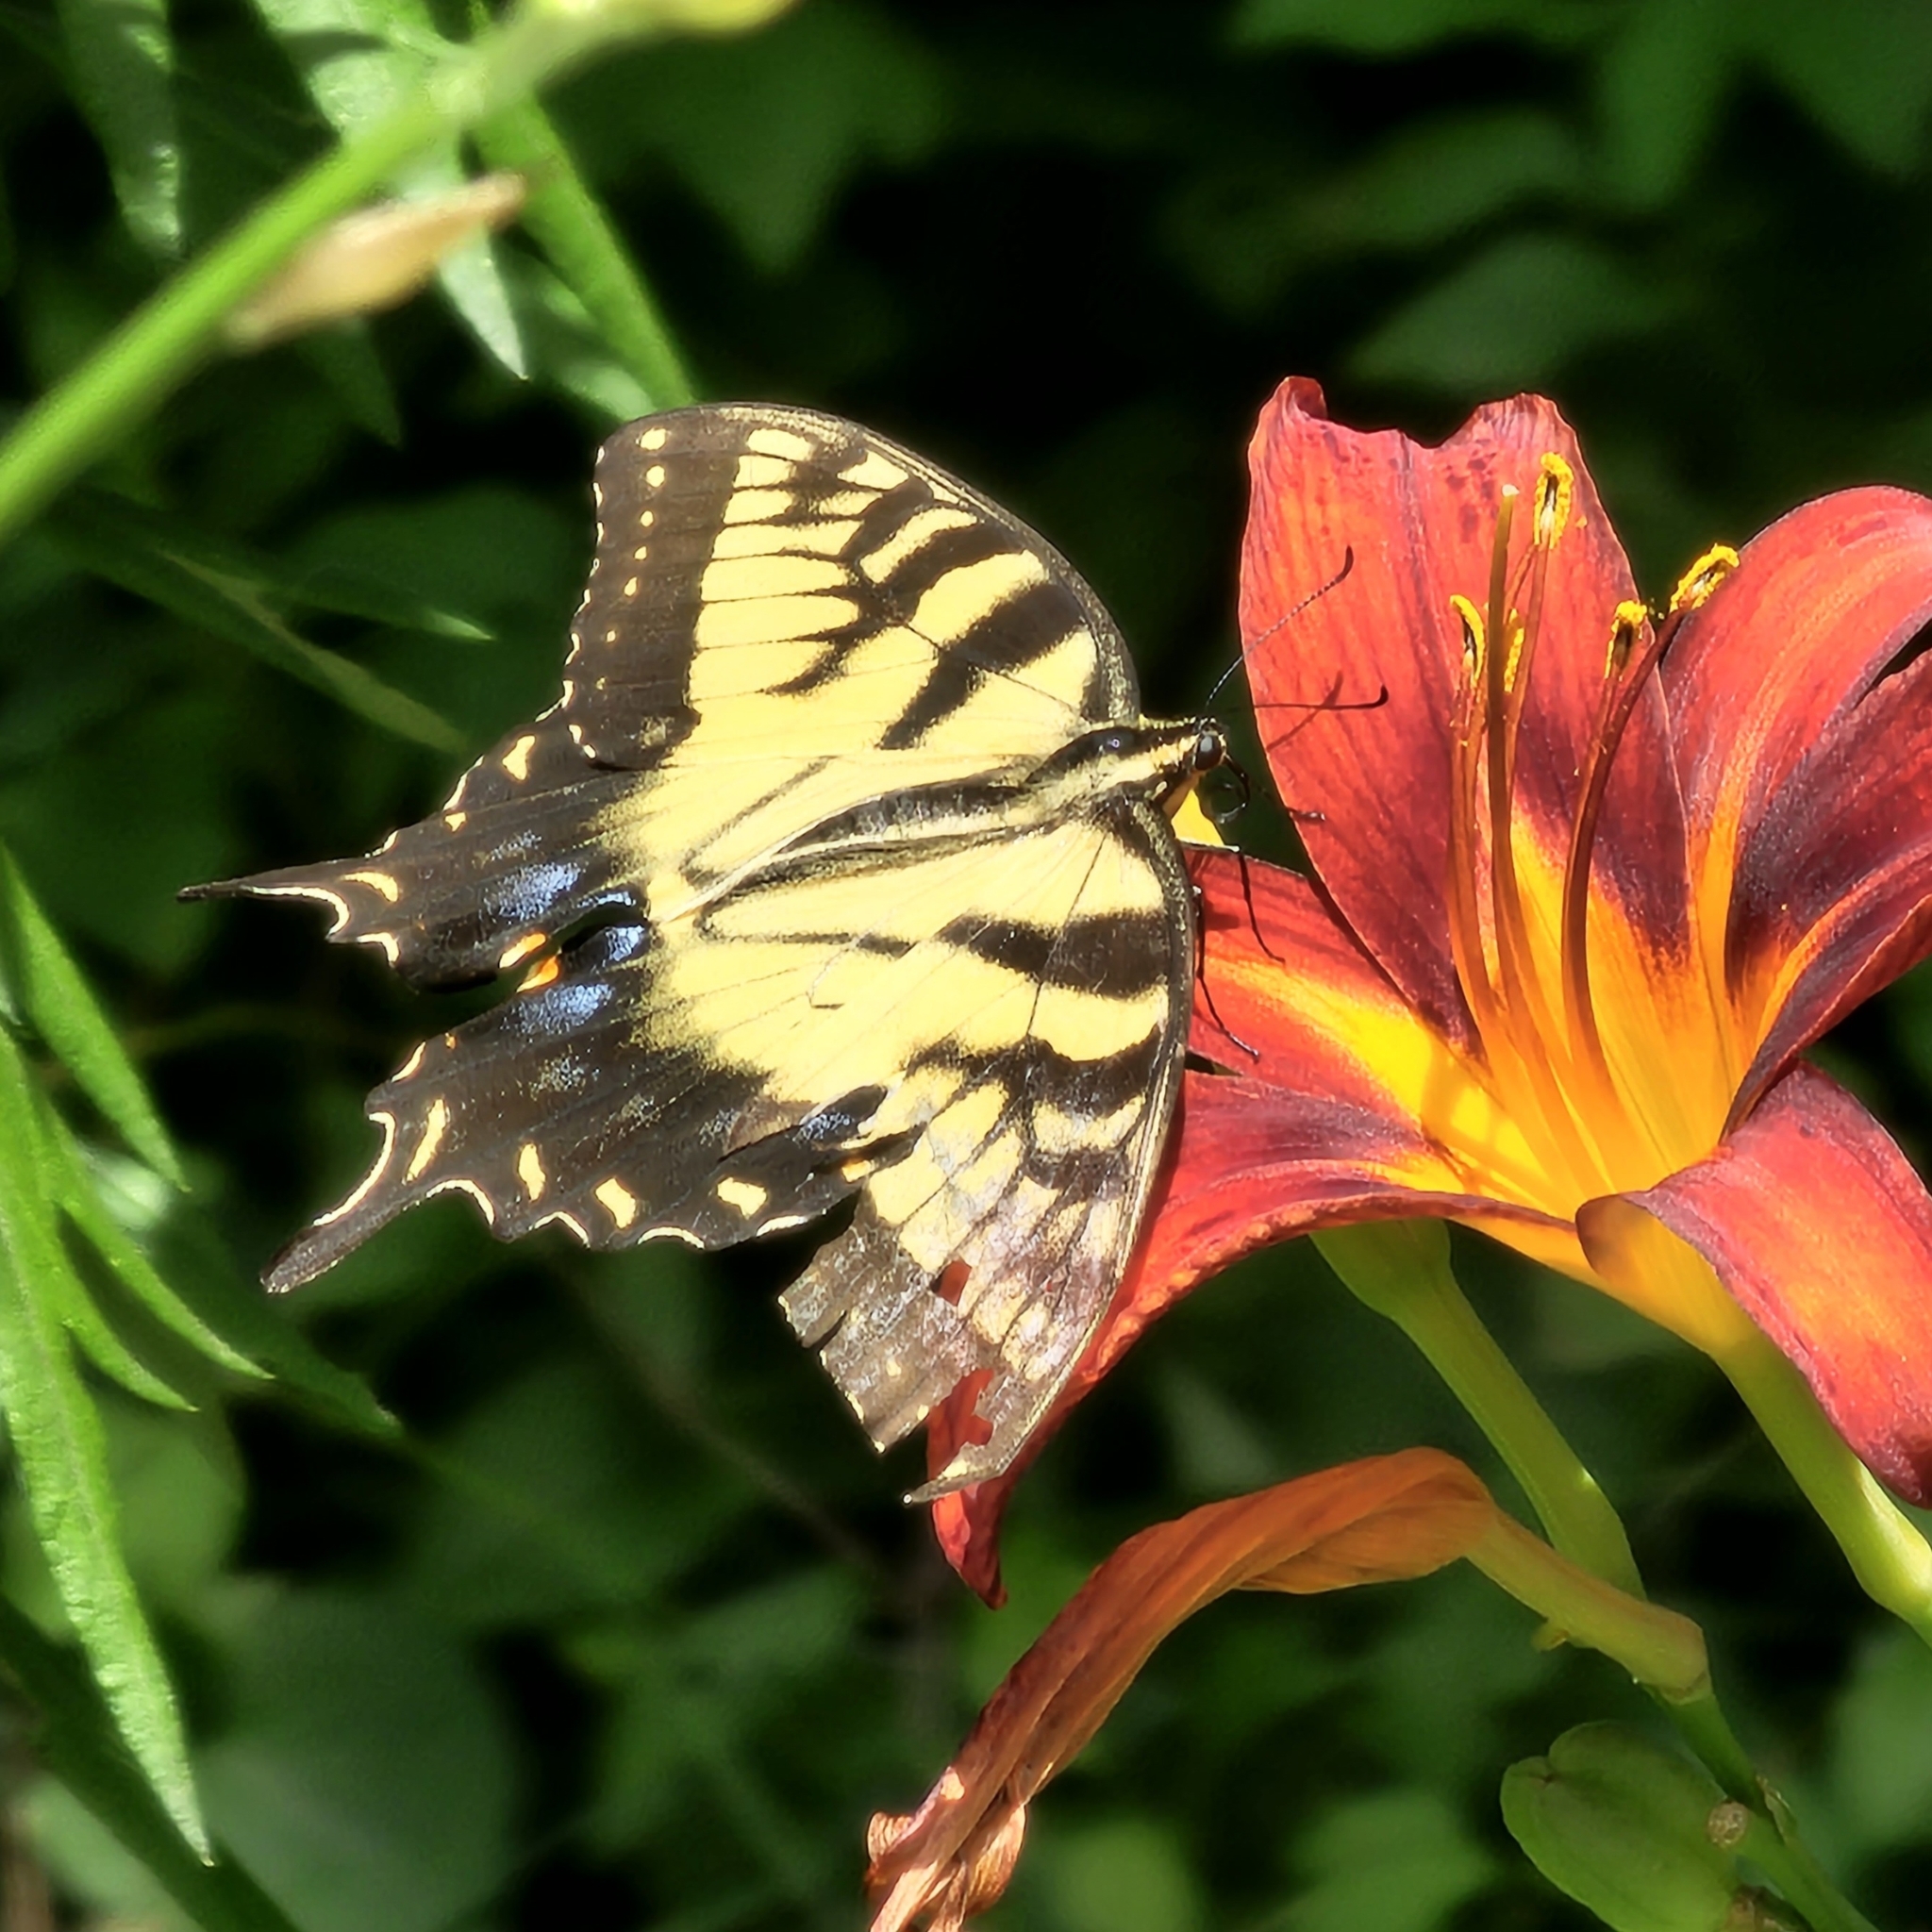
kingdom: Animalia
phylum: Arthropoda
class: Insecta
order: Lepidoptera
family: Papilionidae
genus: Papilio
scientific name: Papilio glaucus
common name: Tiger swallowtail
